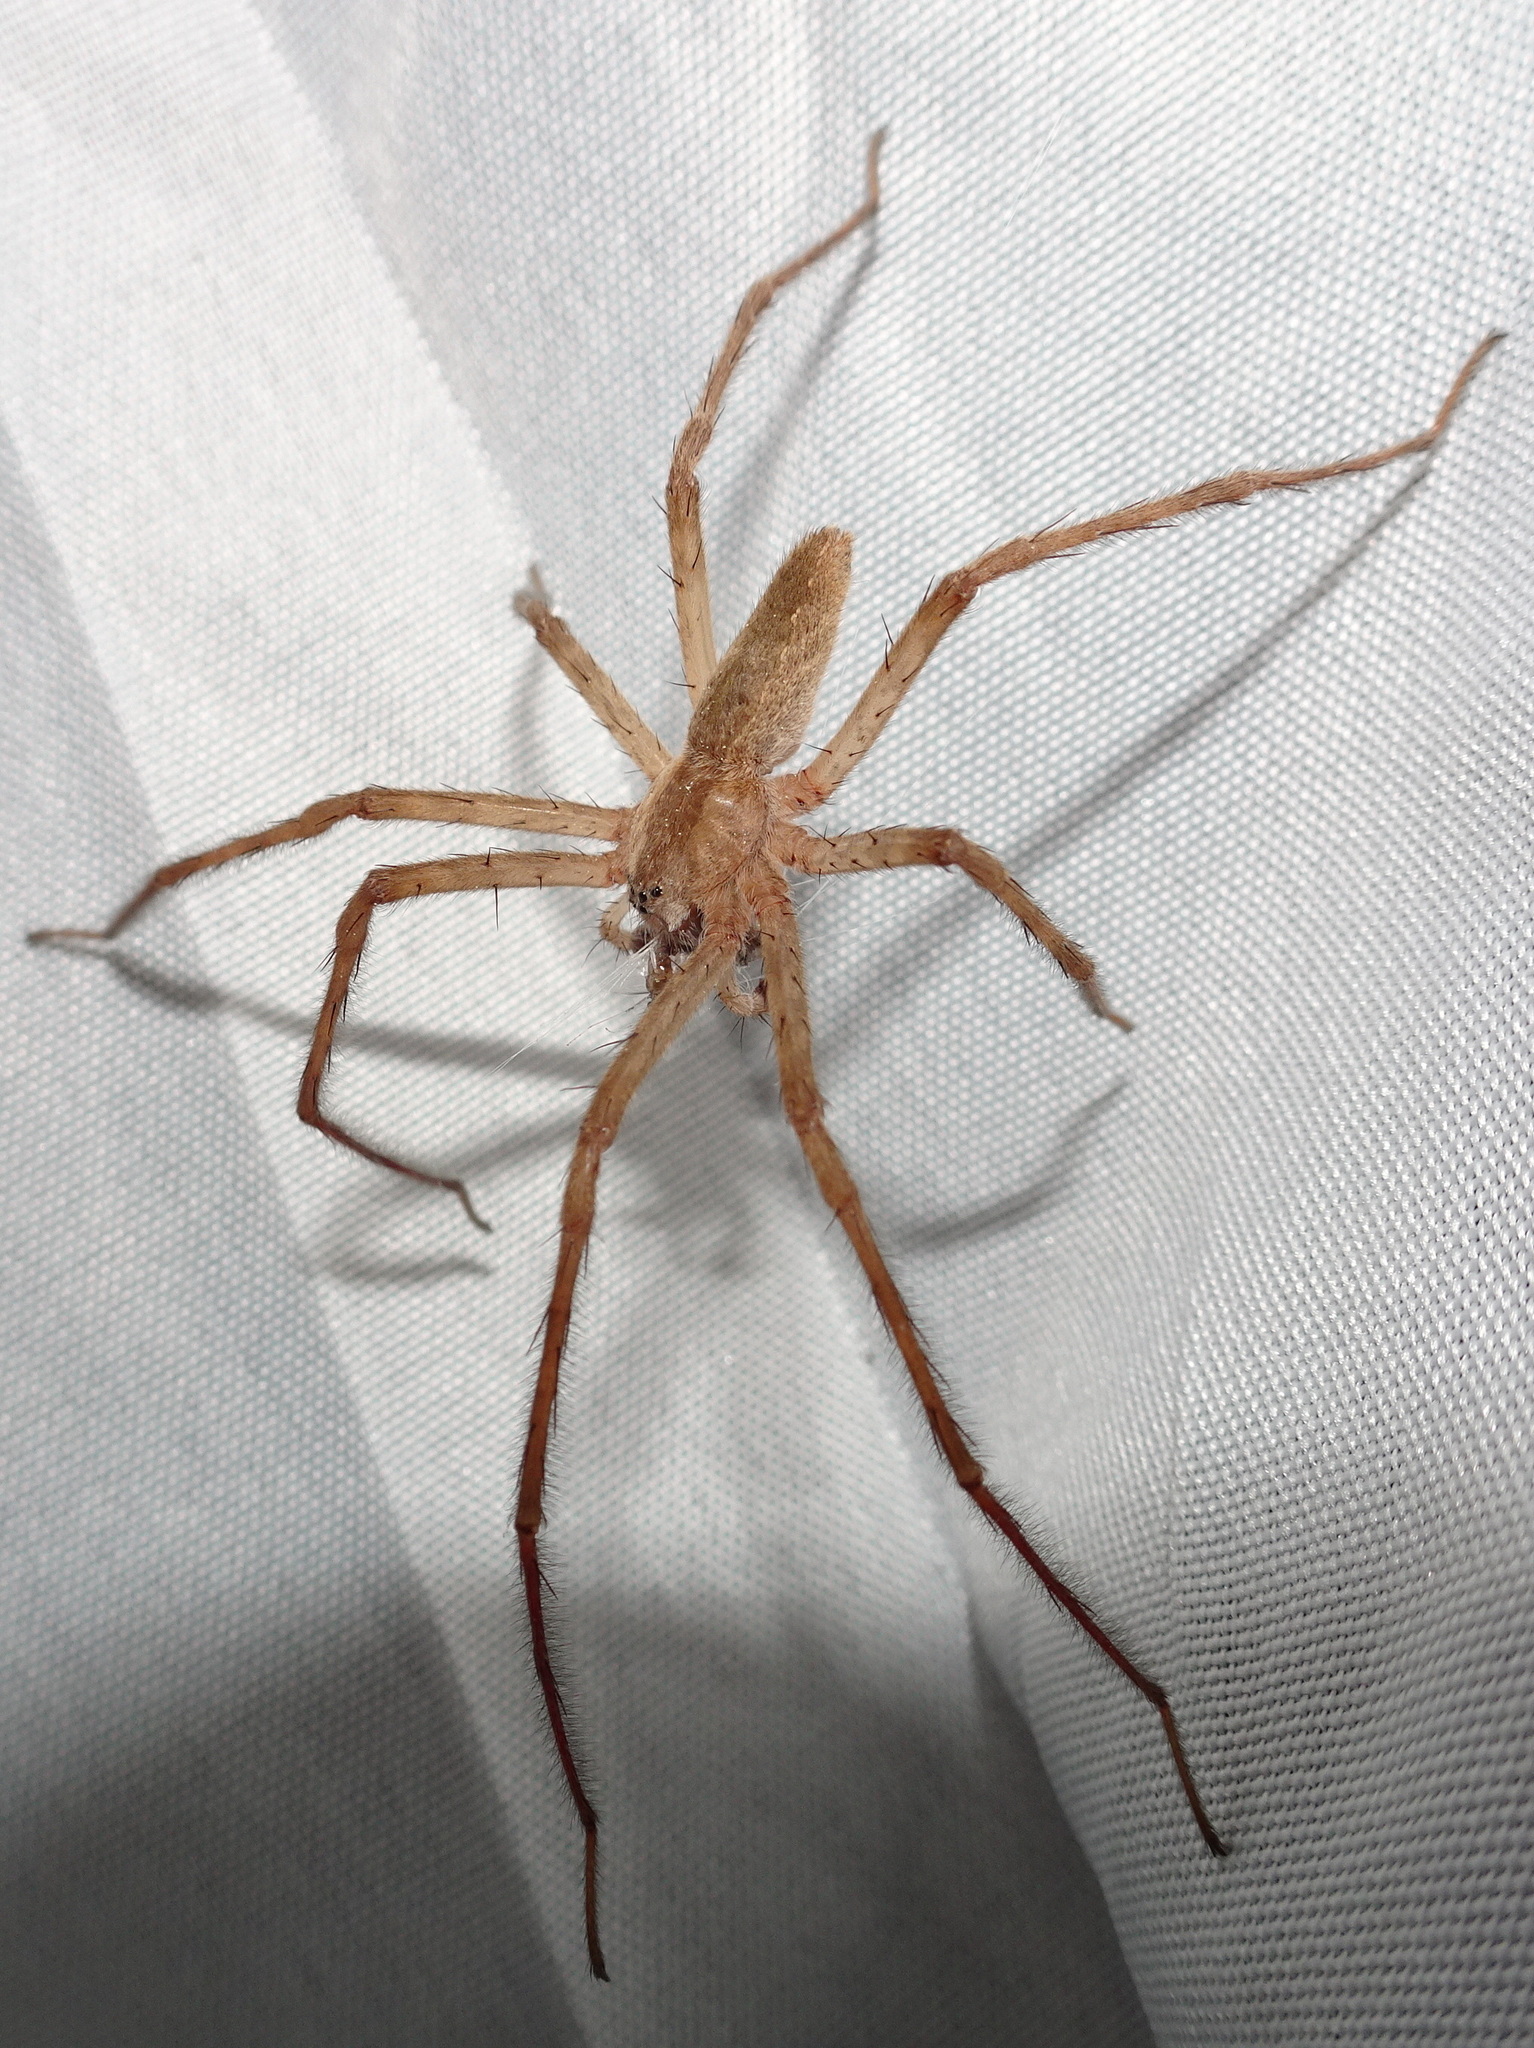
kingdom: Animalia
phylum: Arthropoda
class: Arachnida
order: Araneae
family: Pisauridae
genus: Pisaurina
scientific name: Pisaurina mira
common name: American nursery web spider
